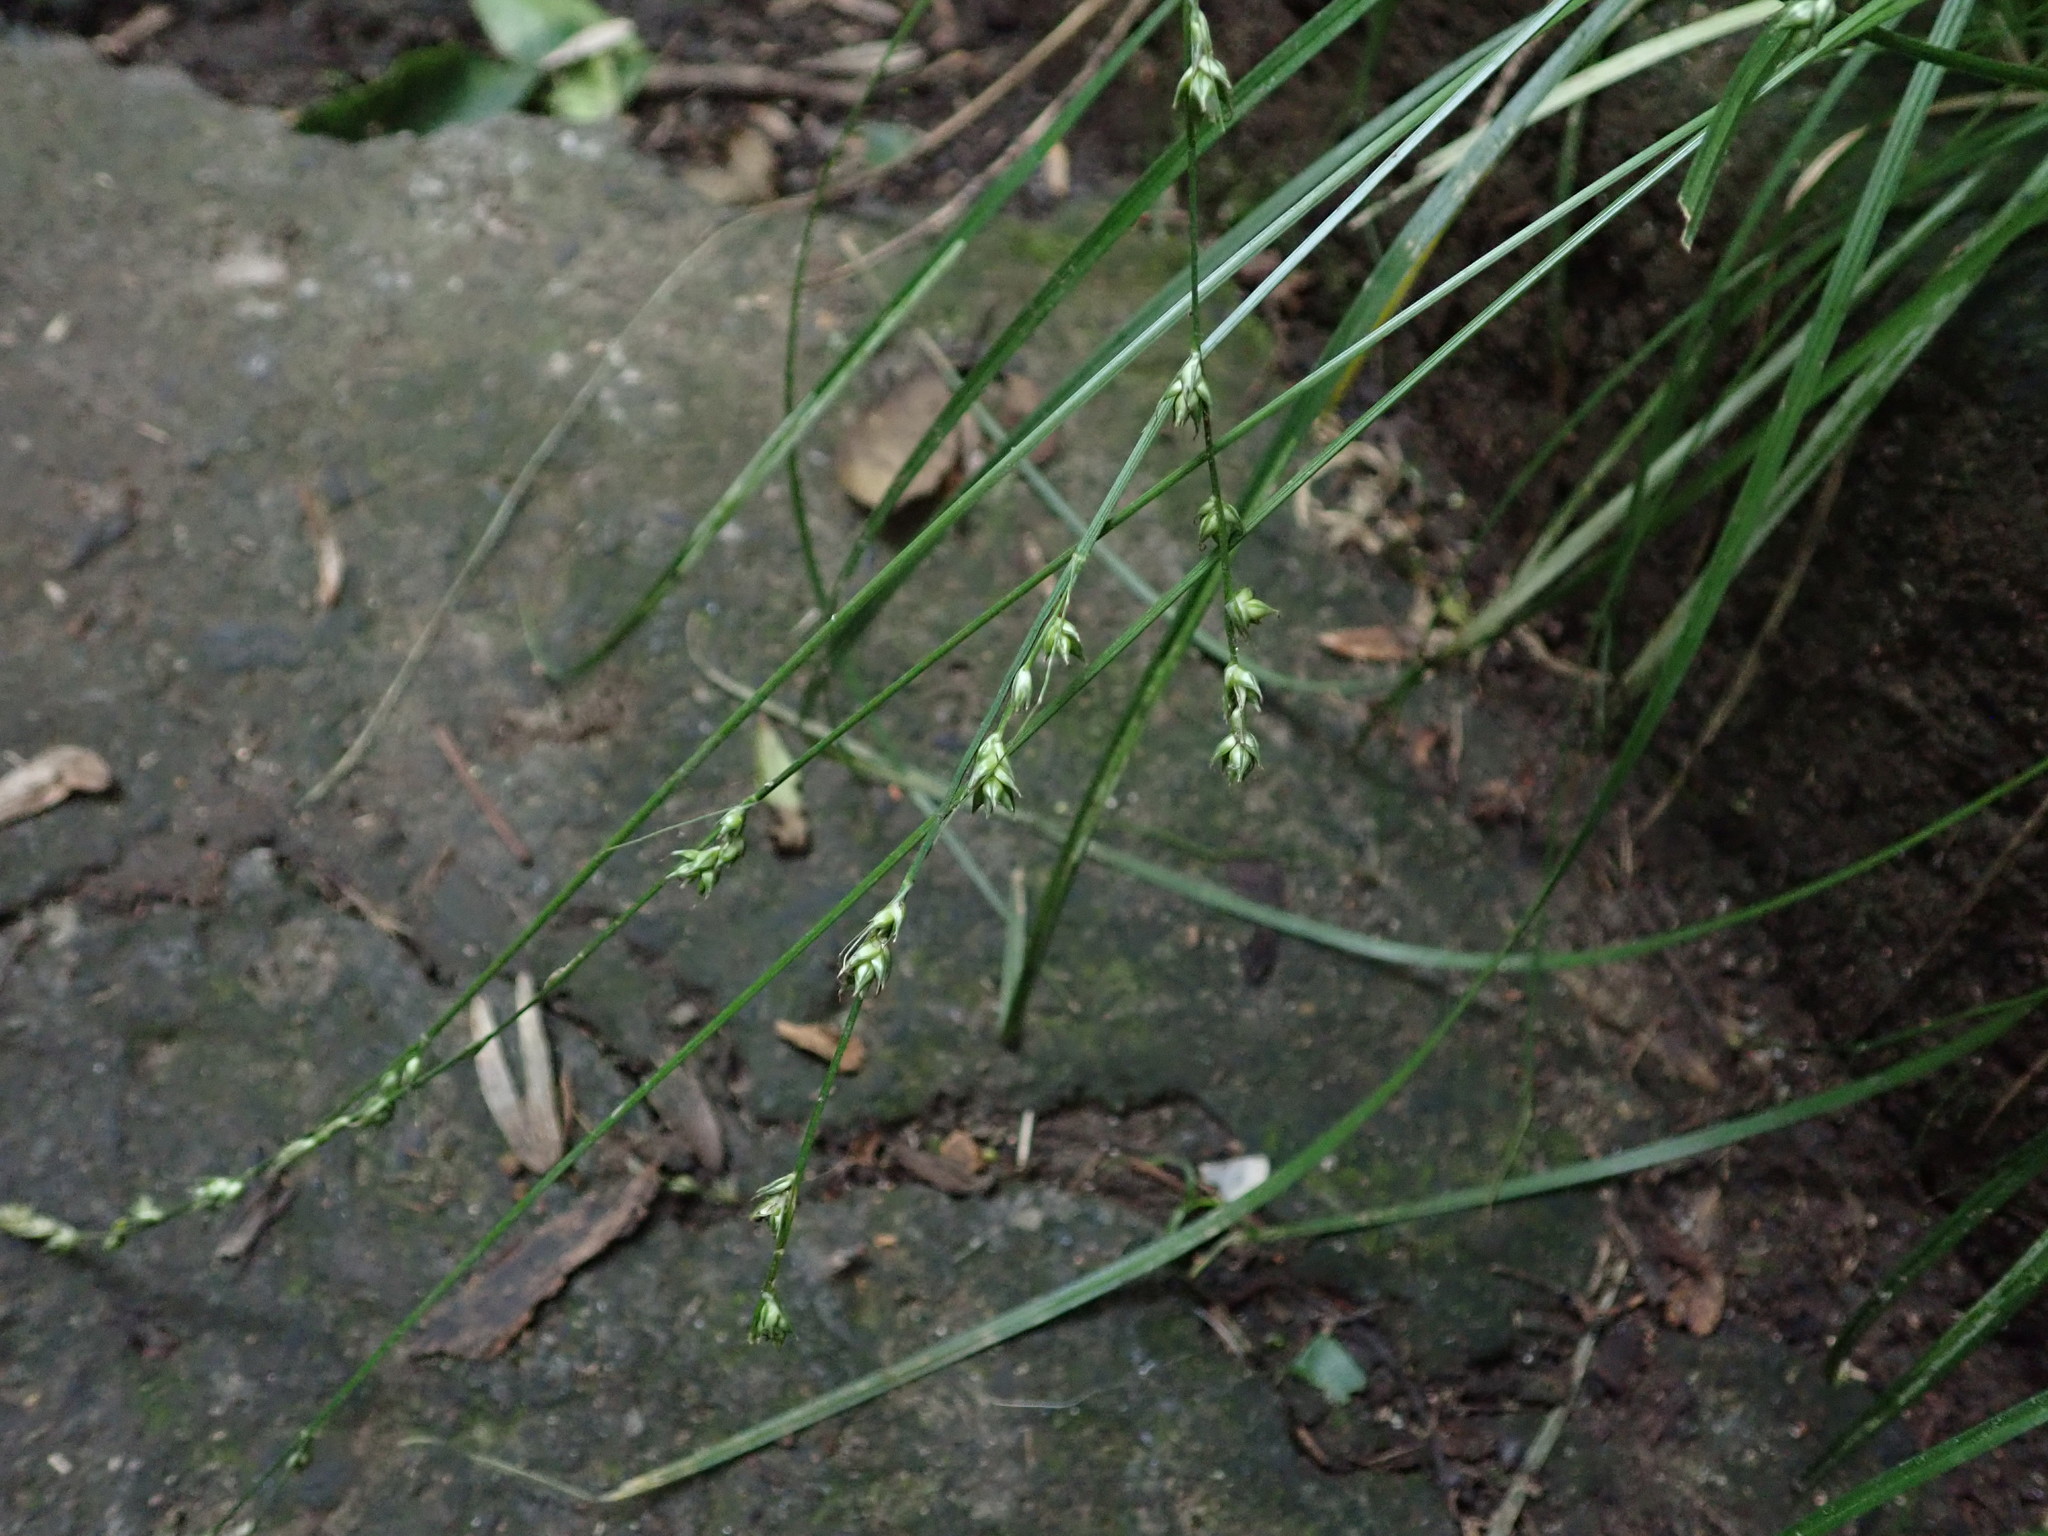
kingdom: Plantae
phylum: Tracheophyta
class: Liliopsida
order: Poales
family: Cyperaceae
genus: Carex
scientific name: Carex divulsa
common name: Grassland sedge
